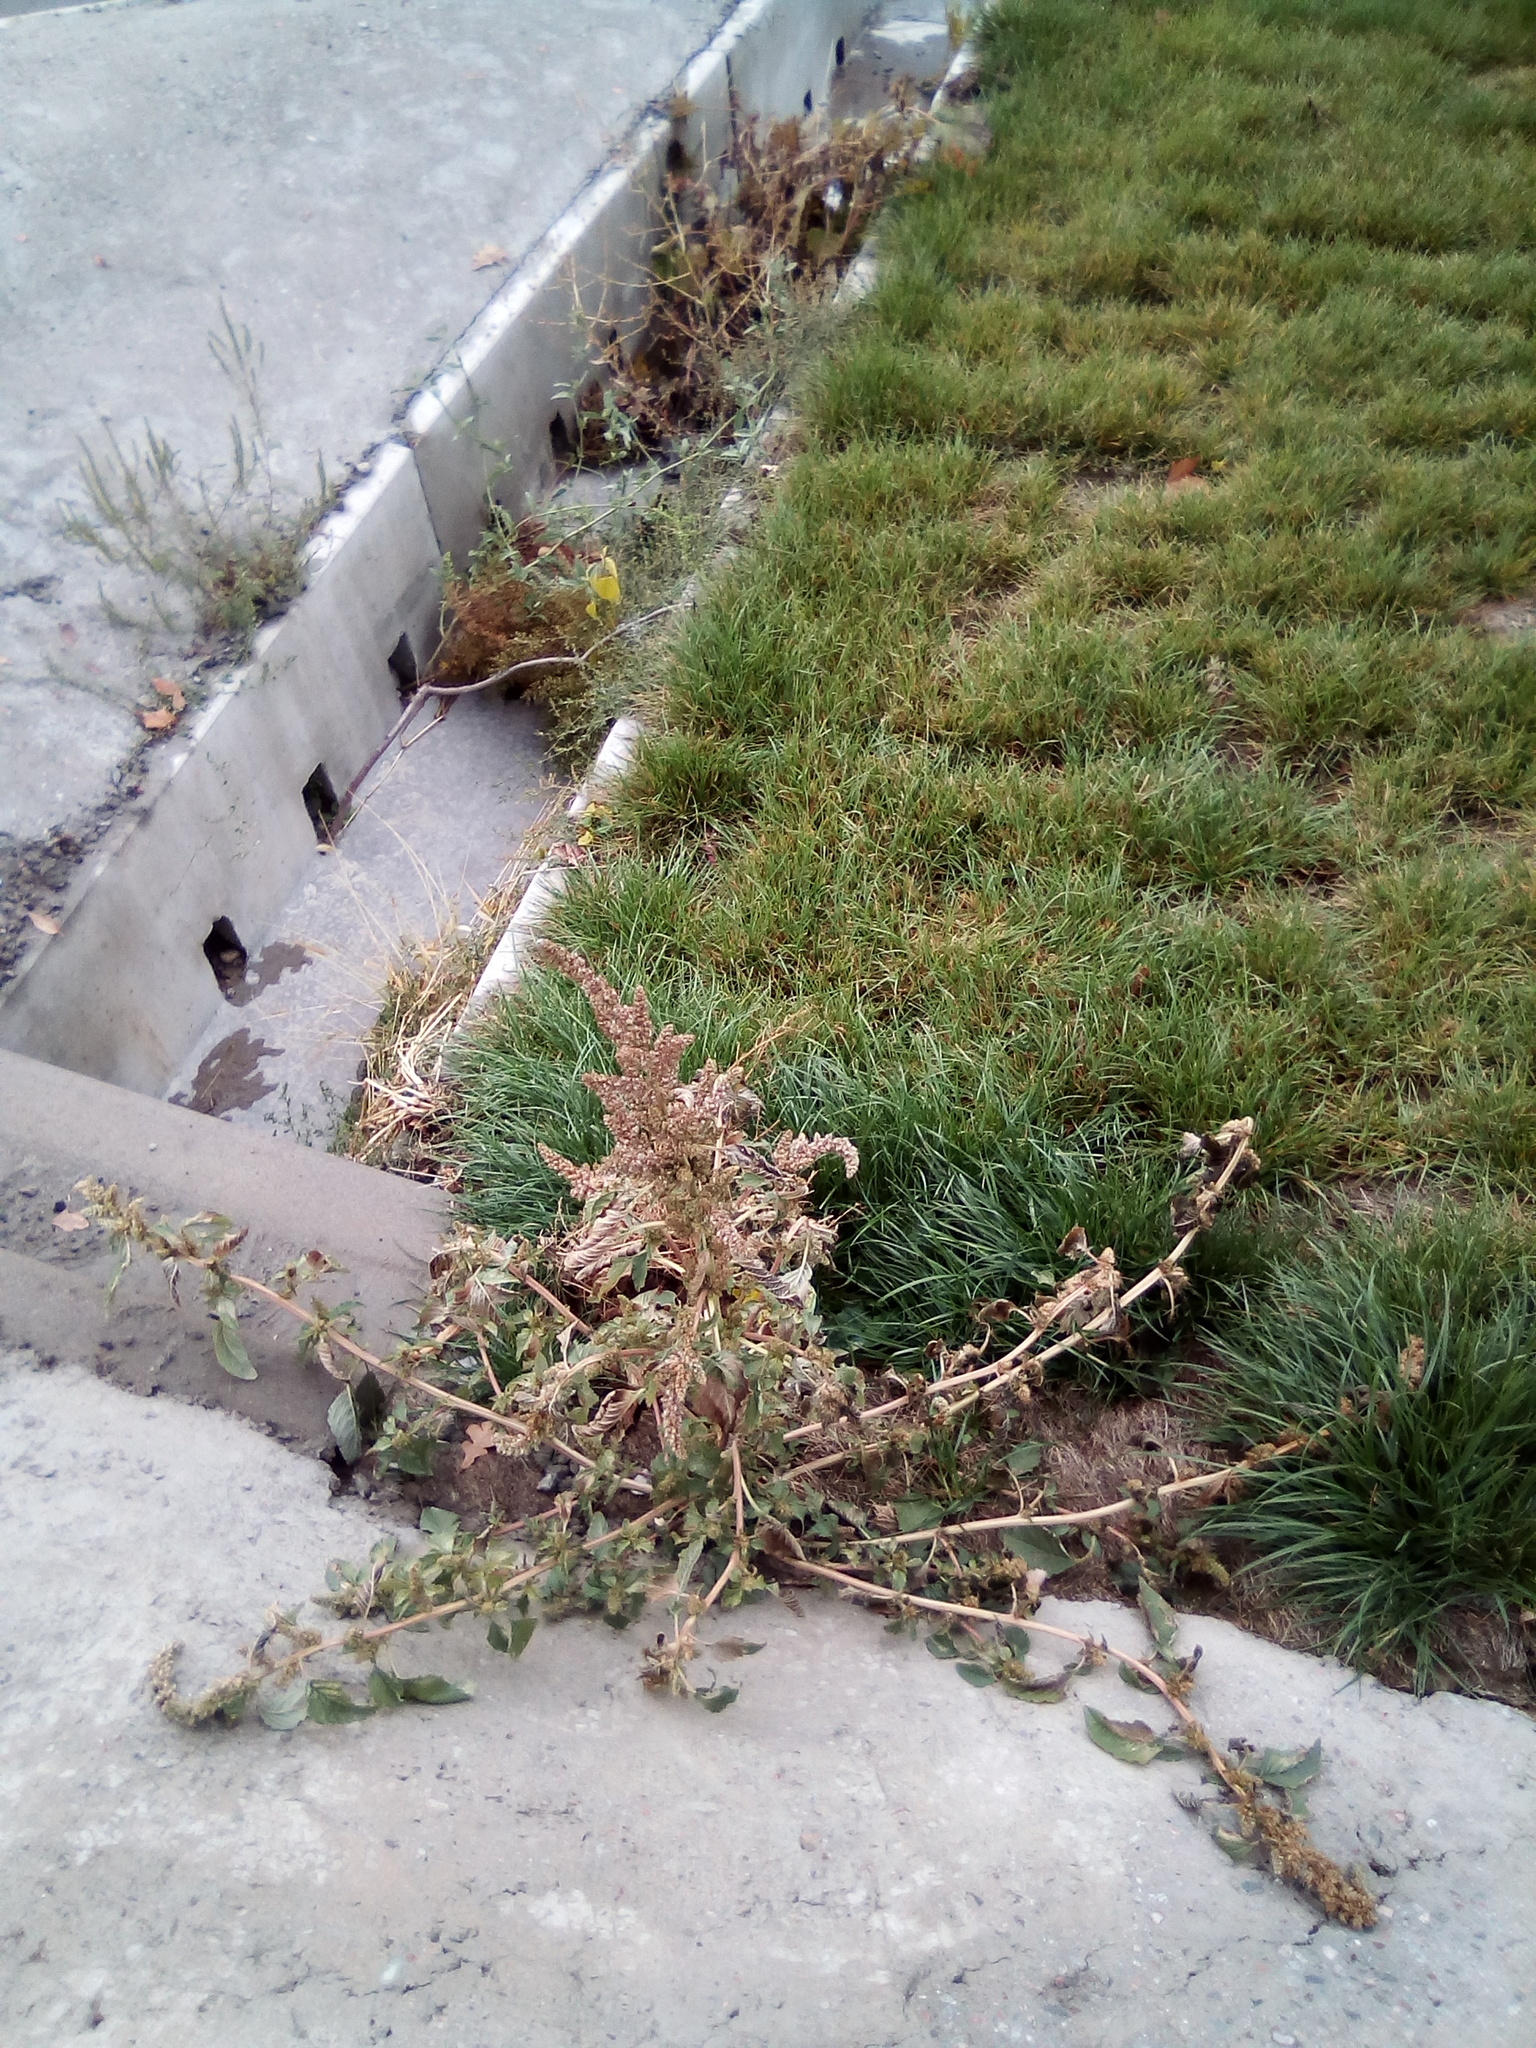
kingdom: Plantae
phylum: Tracheophyta
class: Magnoliopsida
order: Caryophyllales
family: Amaranthaceae
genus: Amaranthus
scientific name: Amaranthus retroflexus
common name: Redroot amaranth
